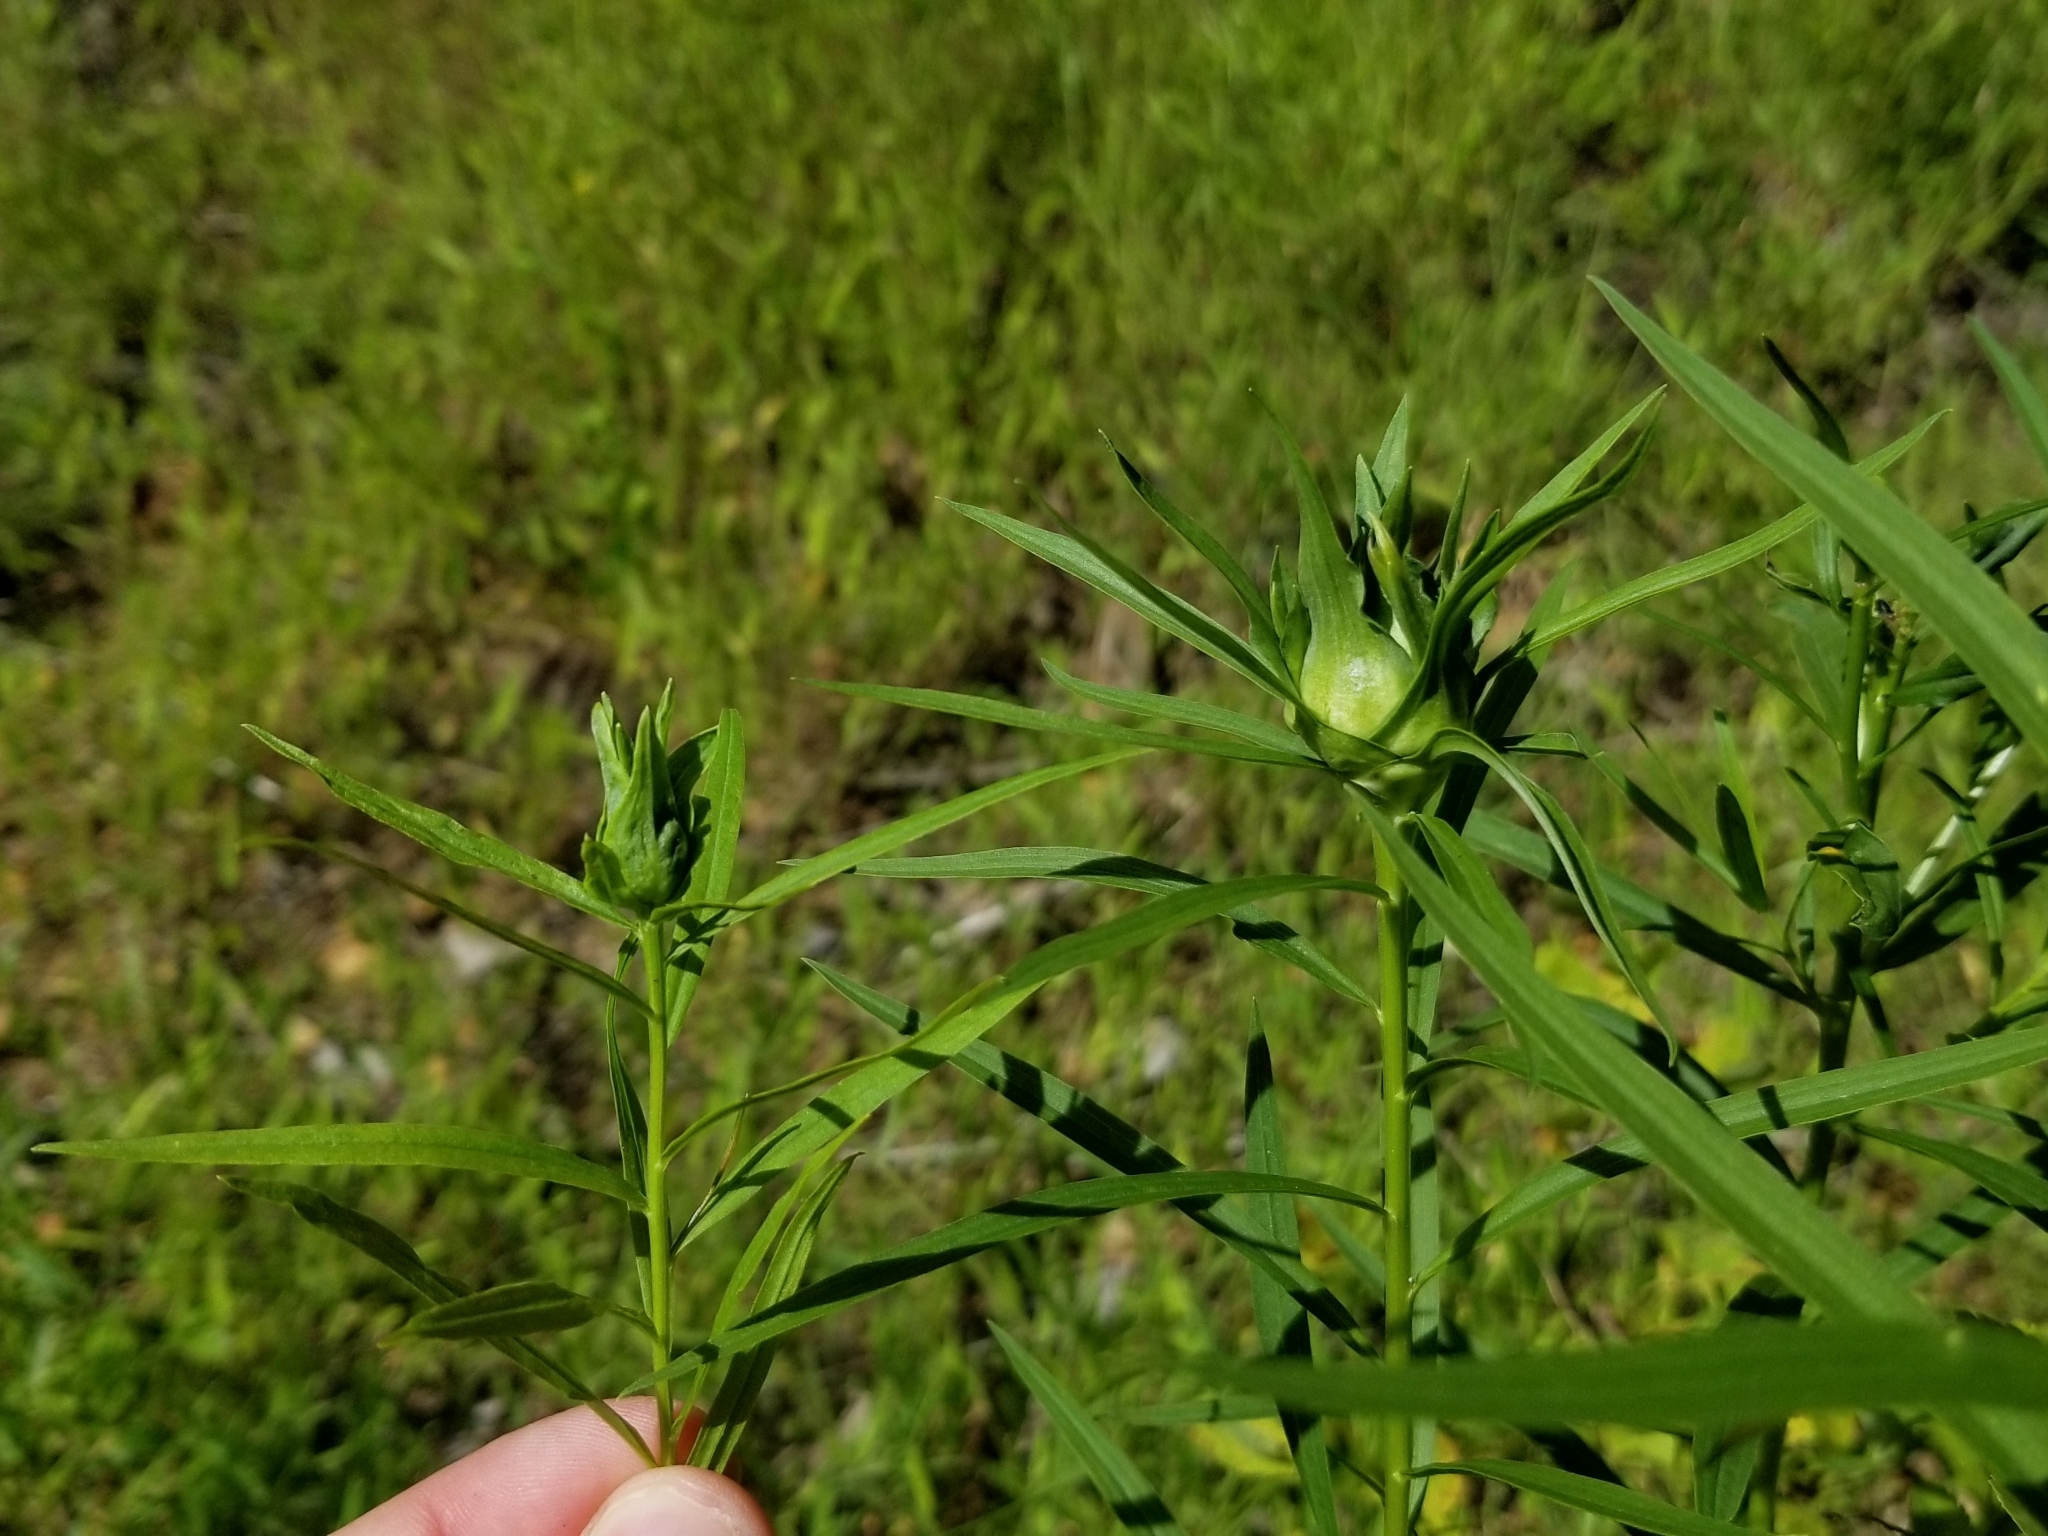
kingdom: Animalia
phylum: Arthropoda
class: Insecta
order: Diptera
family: Cecidomyiidae
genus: Asphondylia
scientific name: Asphondylia pseudorosa
